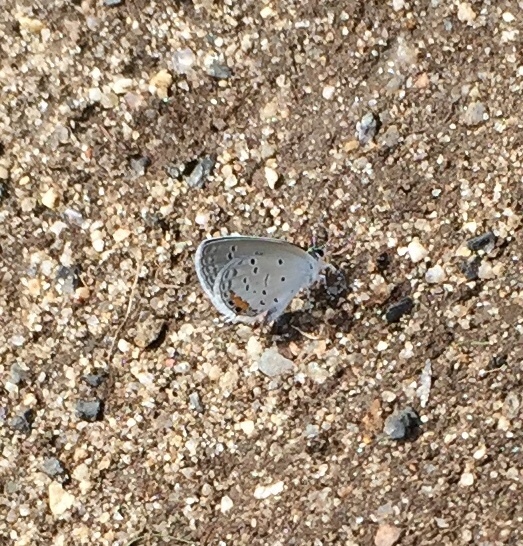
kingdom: Animalia
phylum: Arthropoda
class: Insecta
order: Lepidoptera
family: Lycaenidae
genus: Elkalyce
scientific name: Elkalyce comyntas
